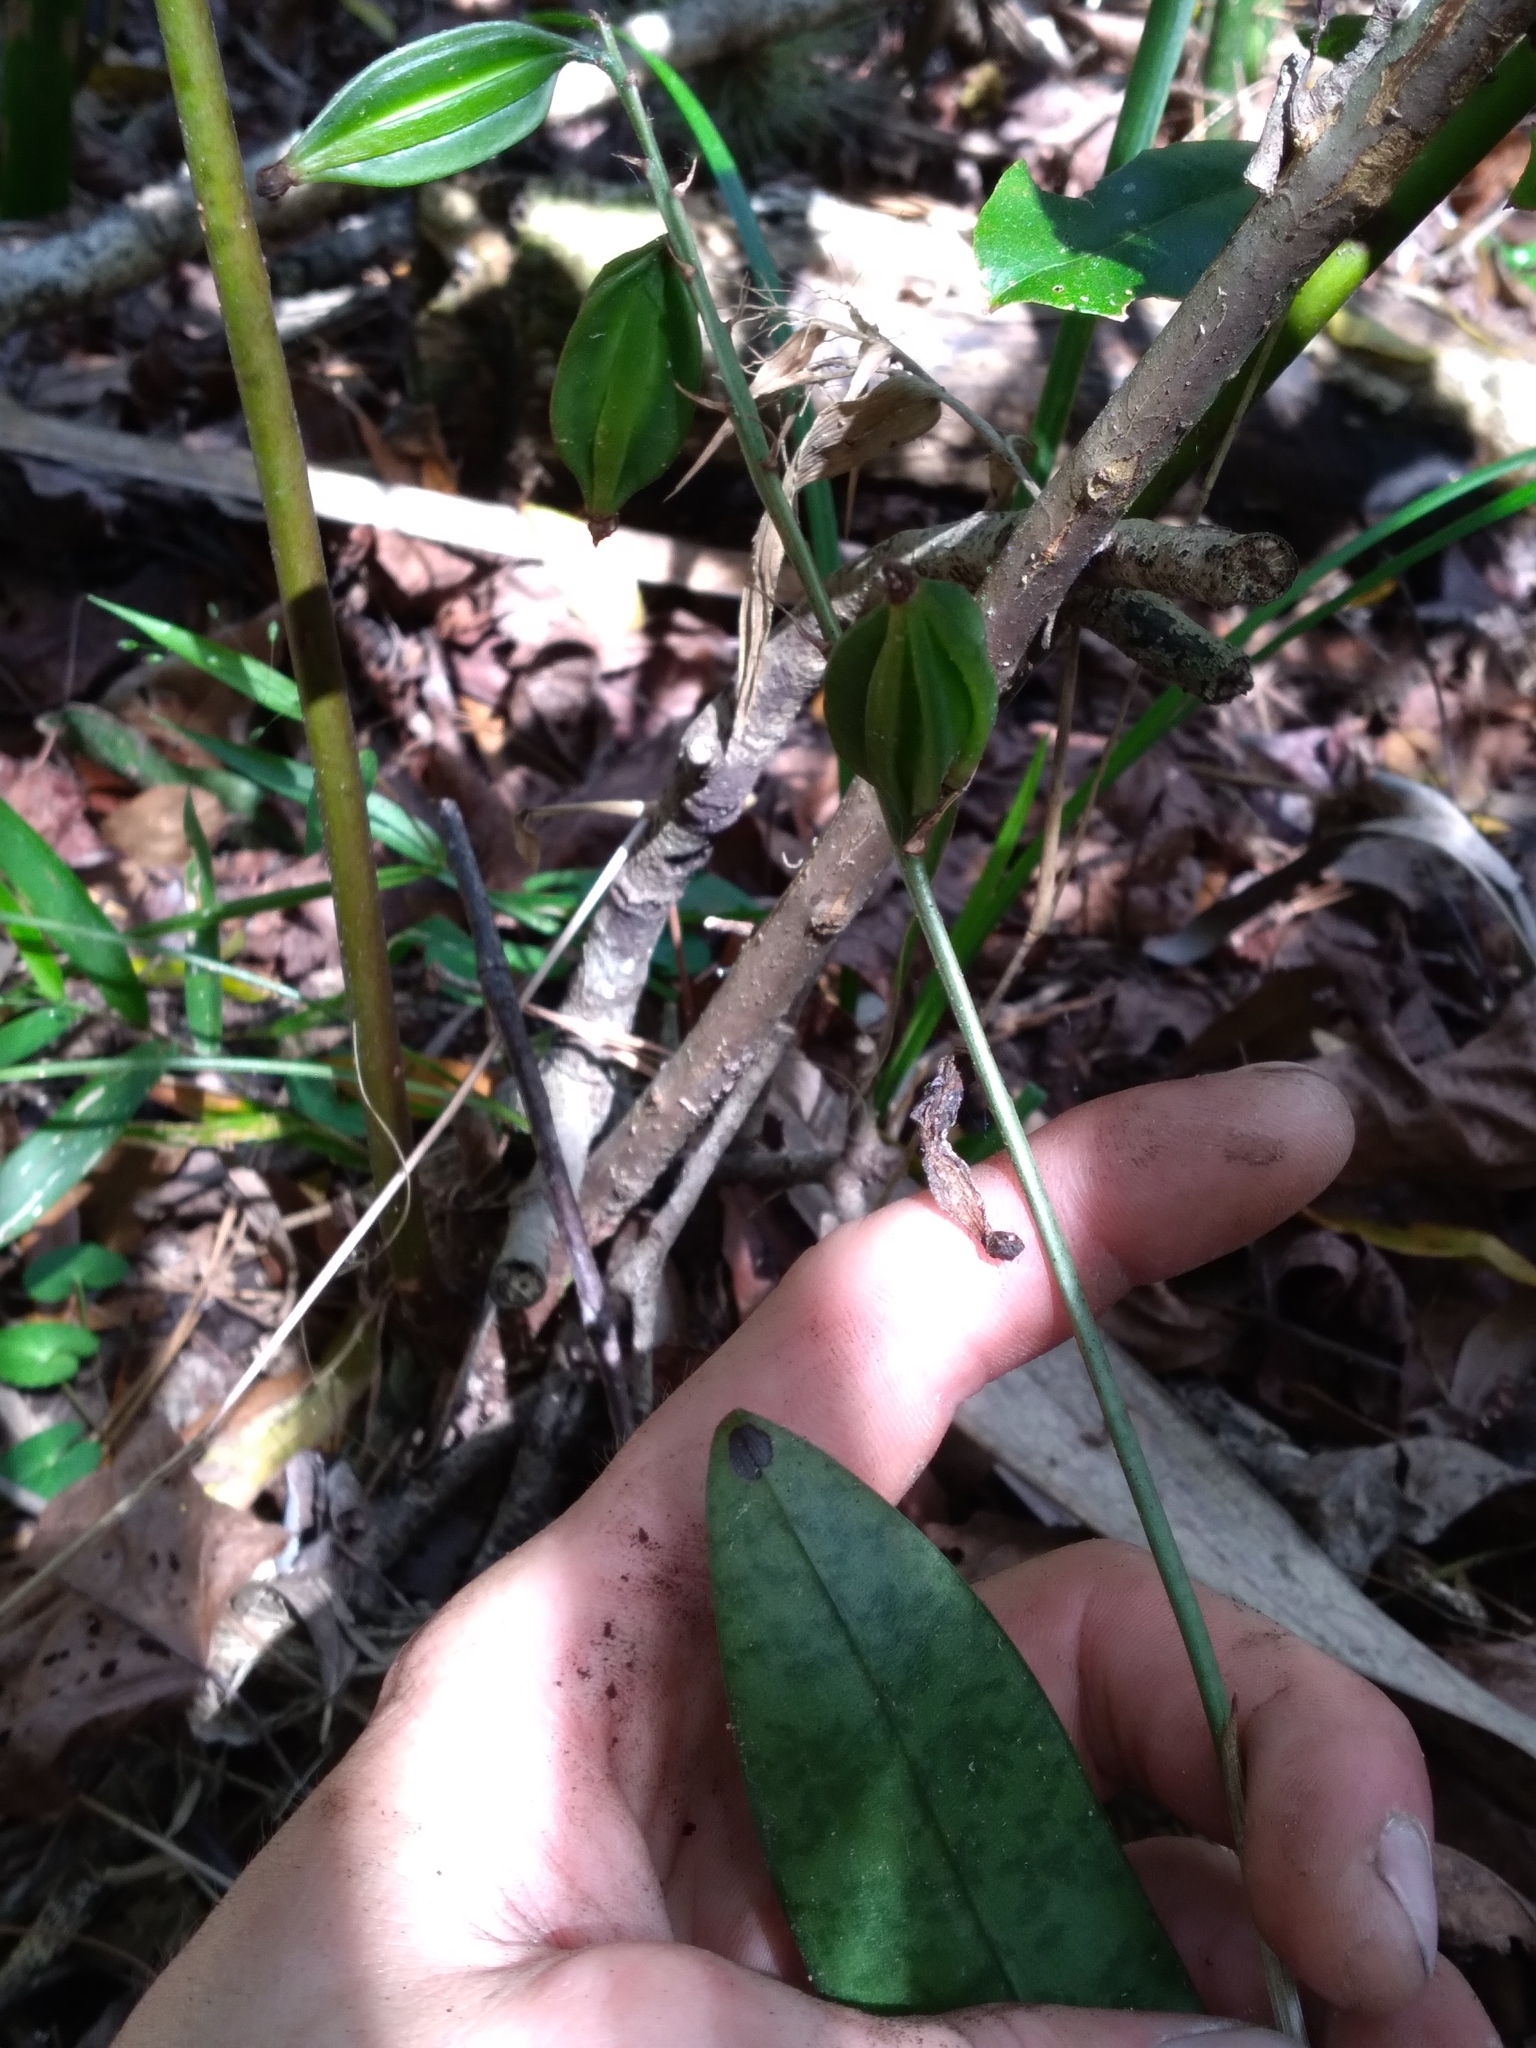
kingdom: Plantae
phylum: Tracheophyta
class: Liliopsida
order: Asparagales
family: Orchidaceae
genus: Eulophia
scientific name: Eulophia maculata
